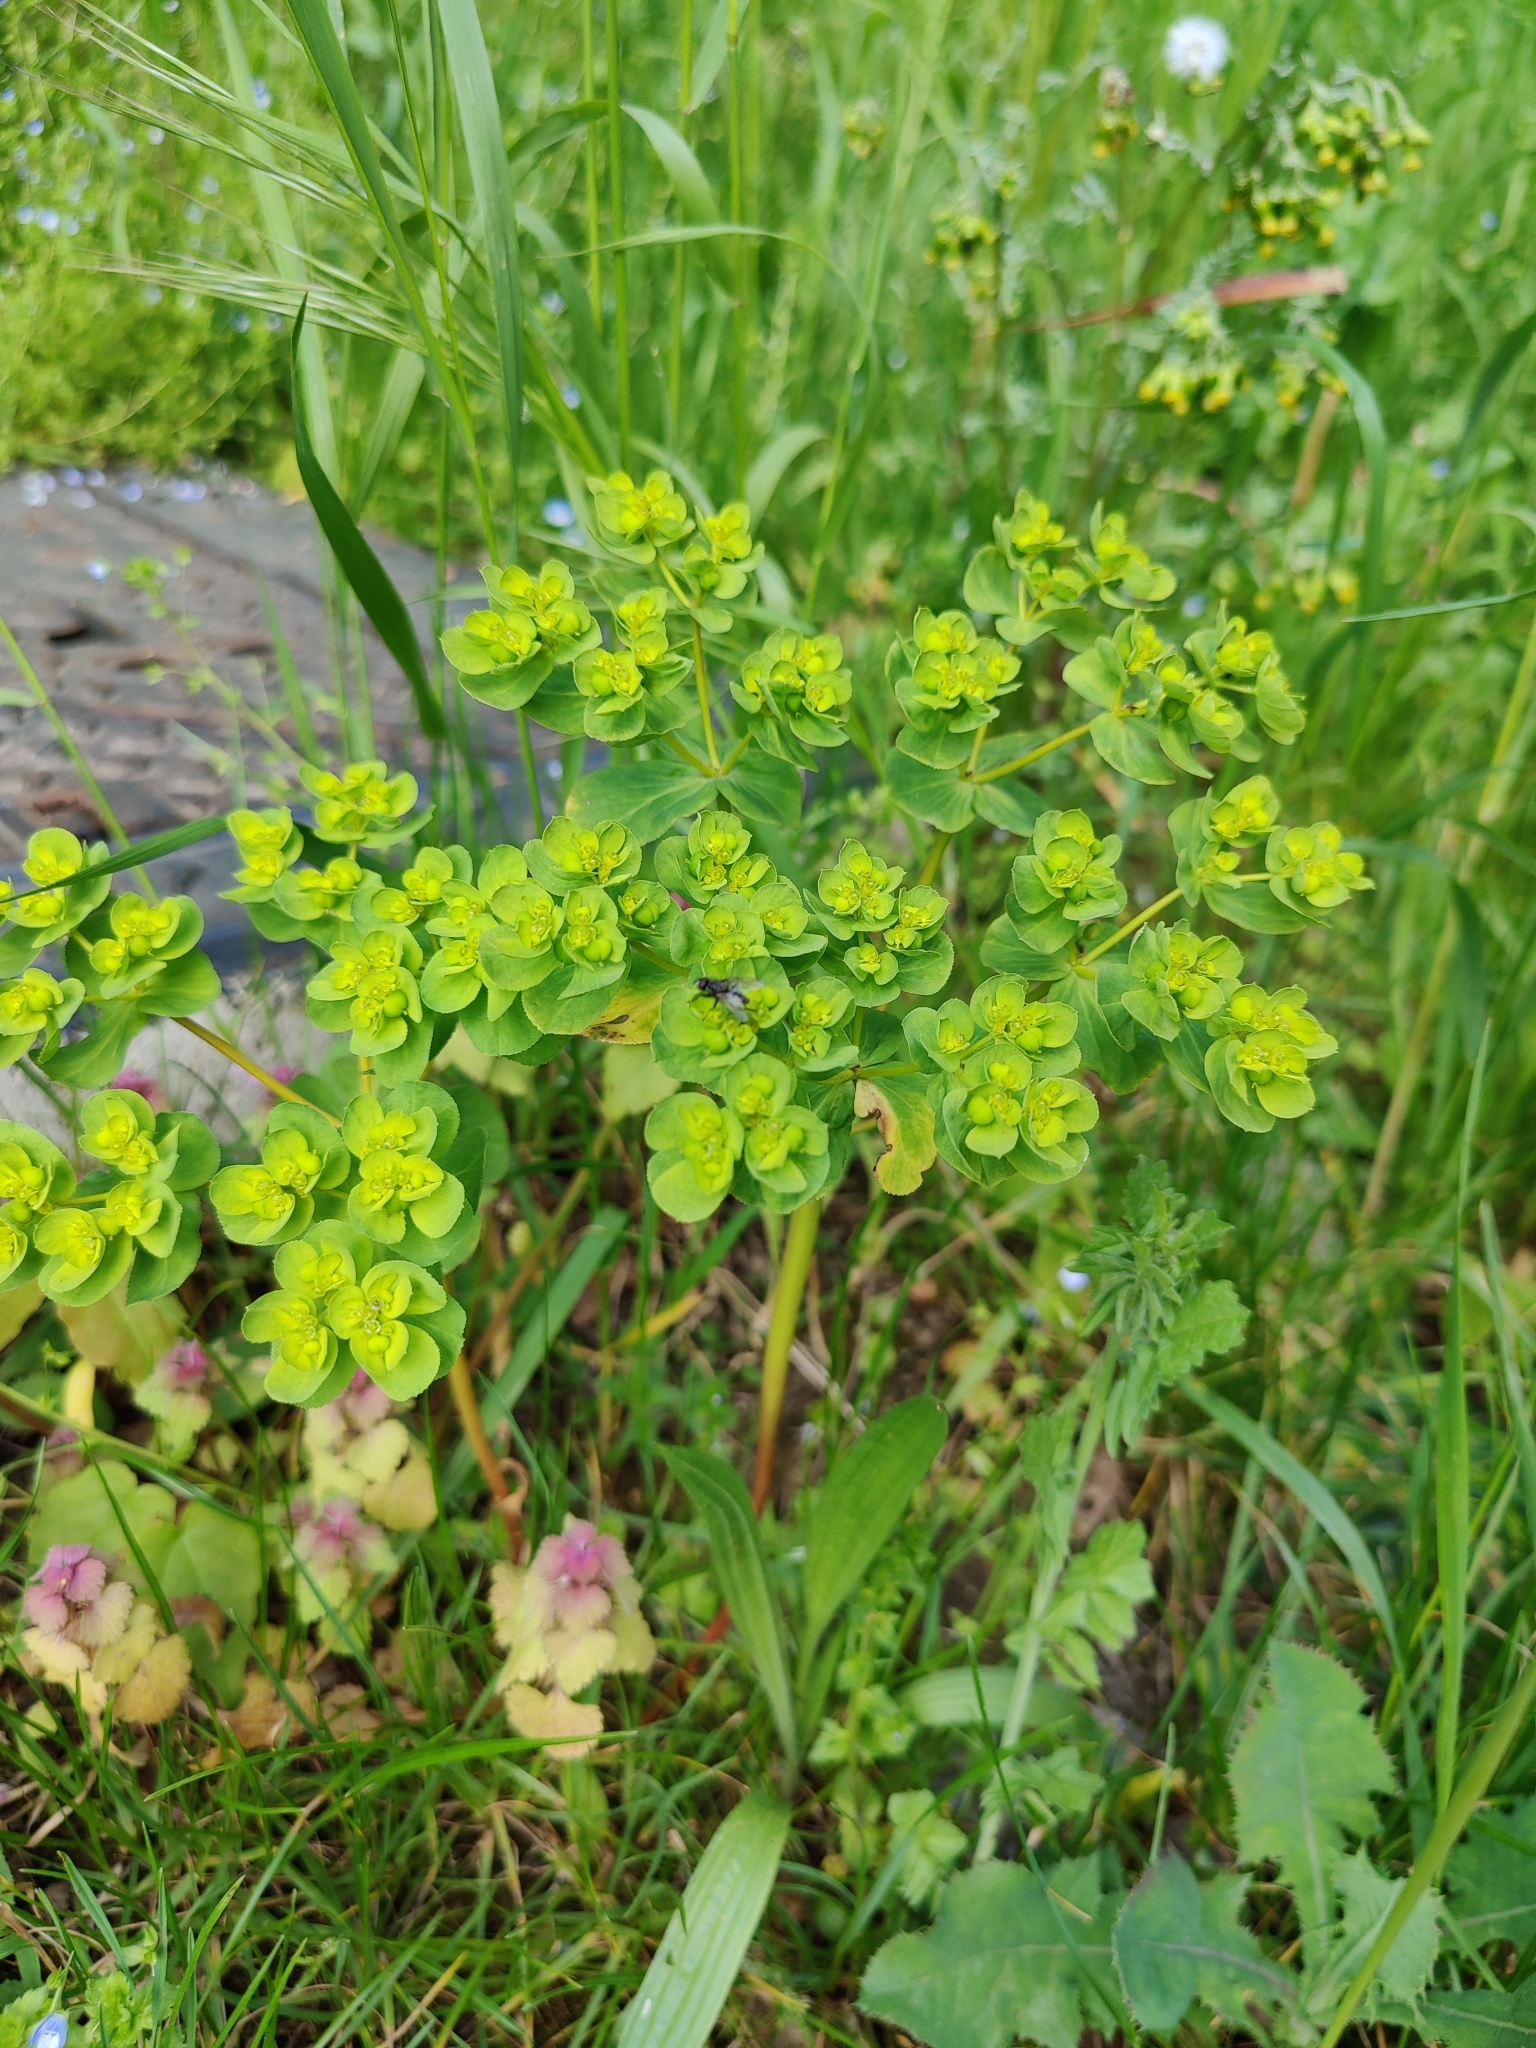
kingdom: Plantae
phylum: Tracheophyta
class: Magnoliopsida
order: Malpighiales
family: Euphorbiaceae
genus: Euphorbia
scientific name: Euphorbia helioscopia
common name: Sun spurge
